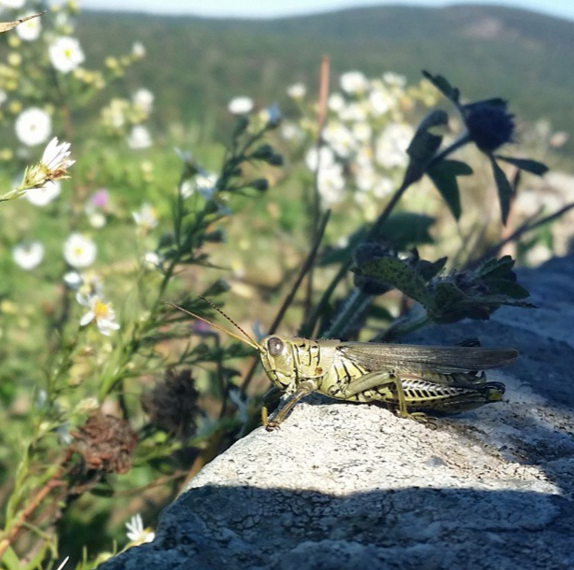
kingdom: Animalia
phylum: Arthropoda
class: Insecta
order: Orthoptera
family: Acrididae
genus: Melanoplus
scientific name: Melanoplus differentialis
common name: Differential grasshopper
